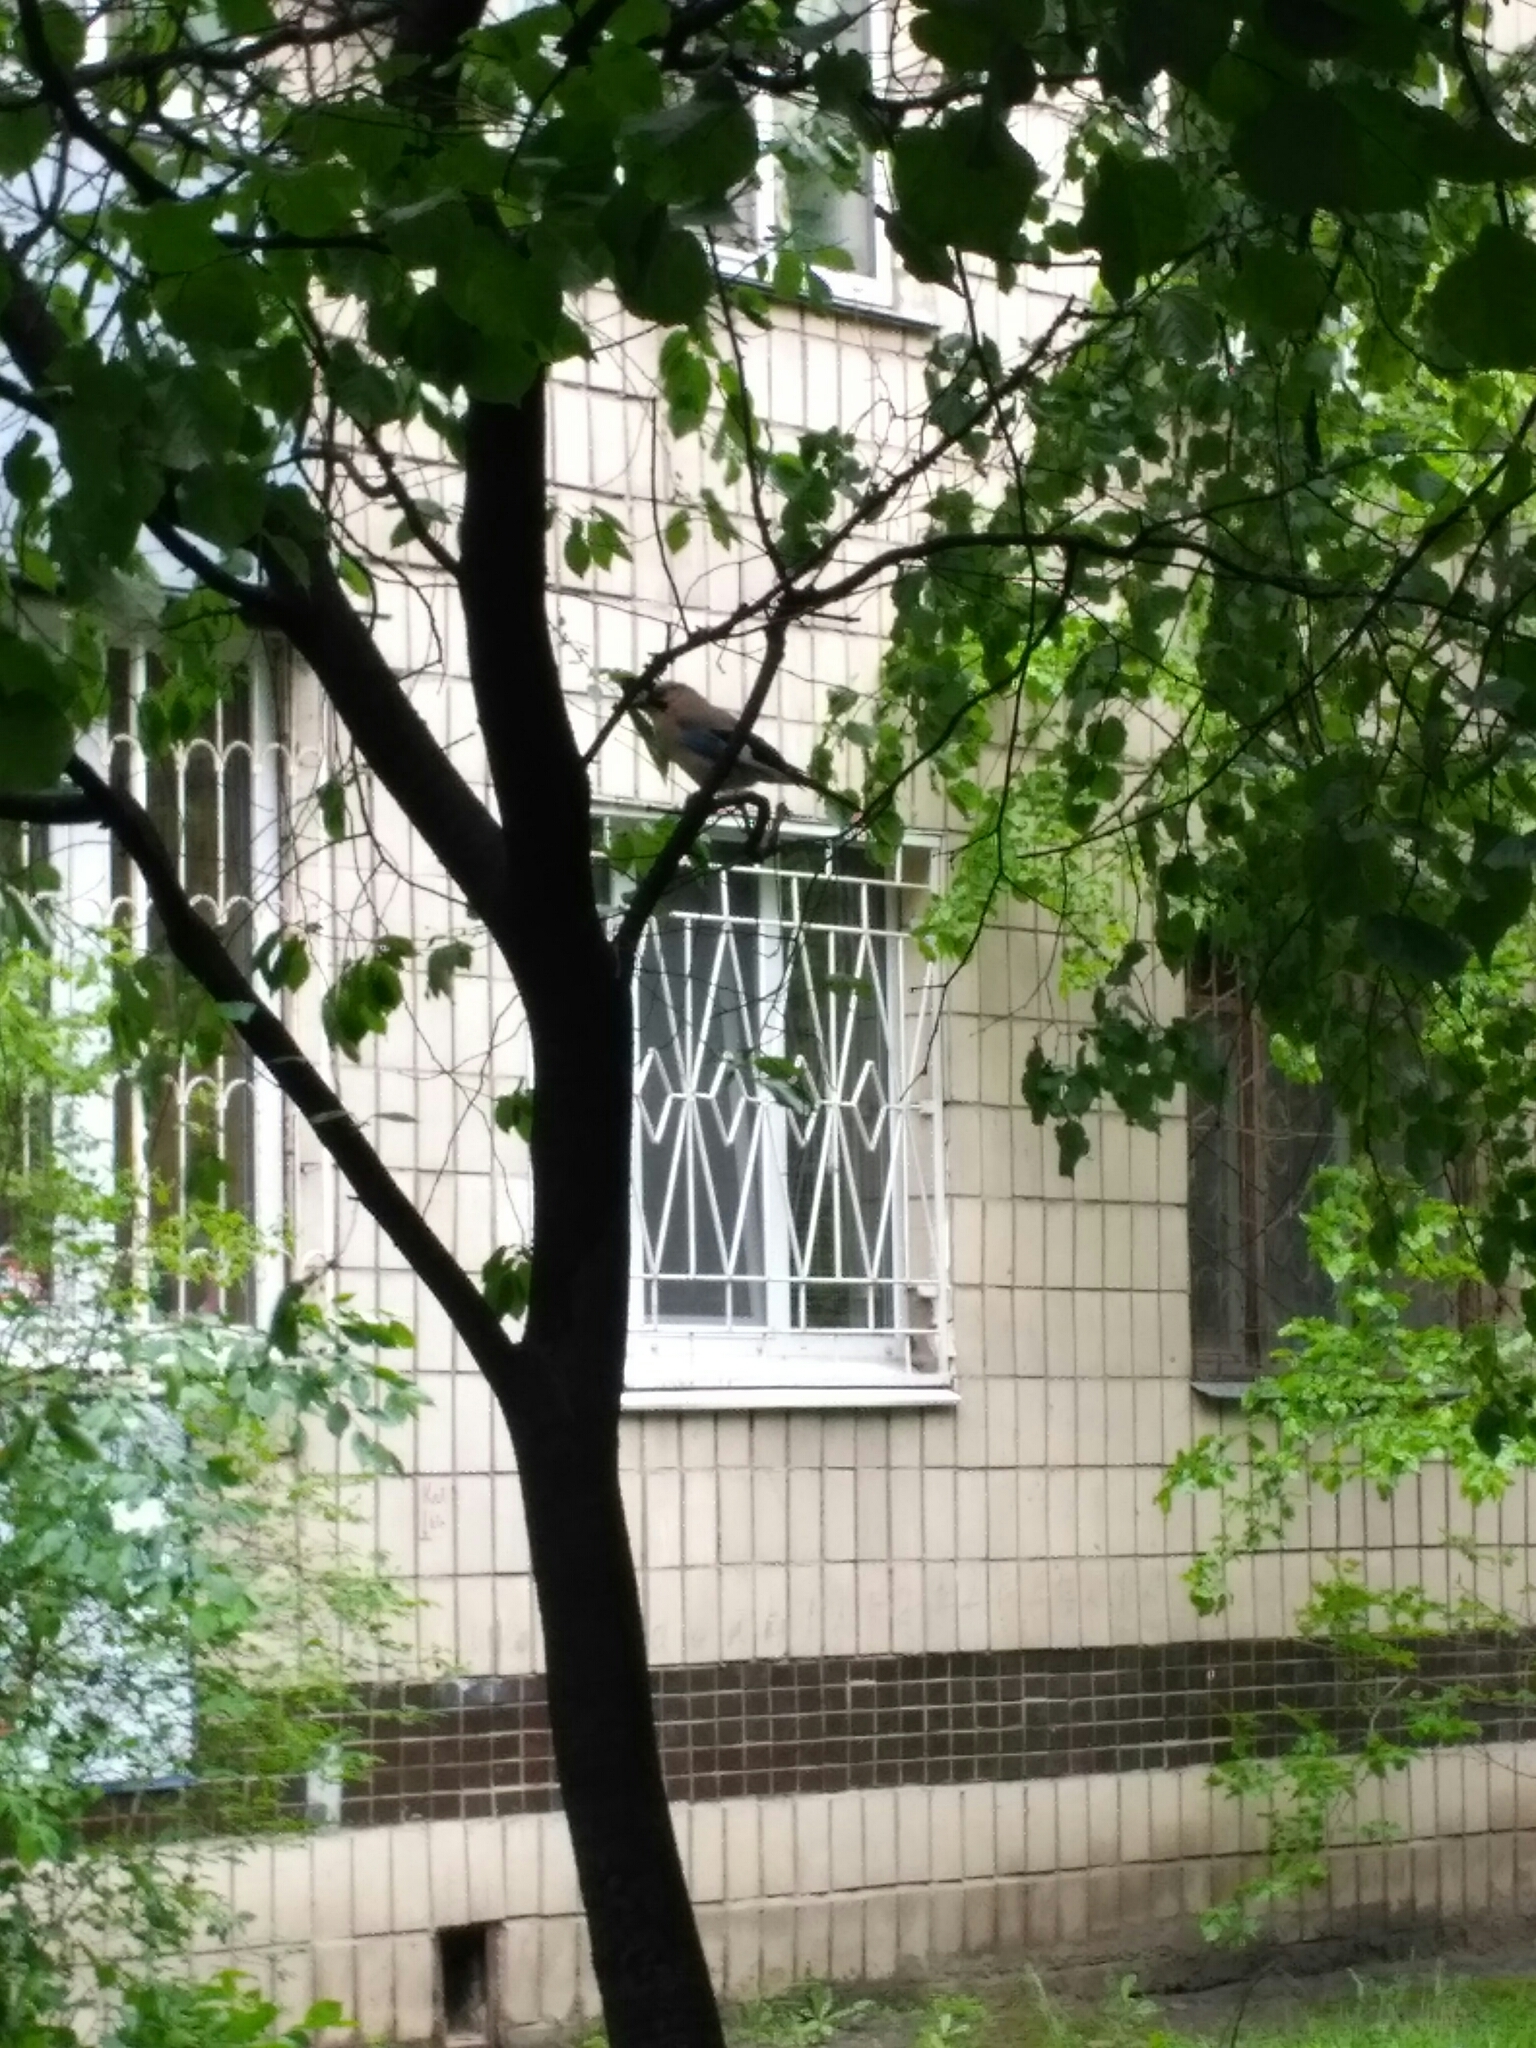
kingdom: Animalia
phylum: Chordata
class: Aves
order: Passeriformes
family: Corvidae
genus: Garrulus
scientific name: Garrulus glandarius
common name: Eurasian jay
